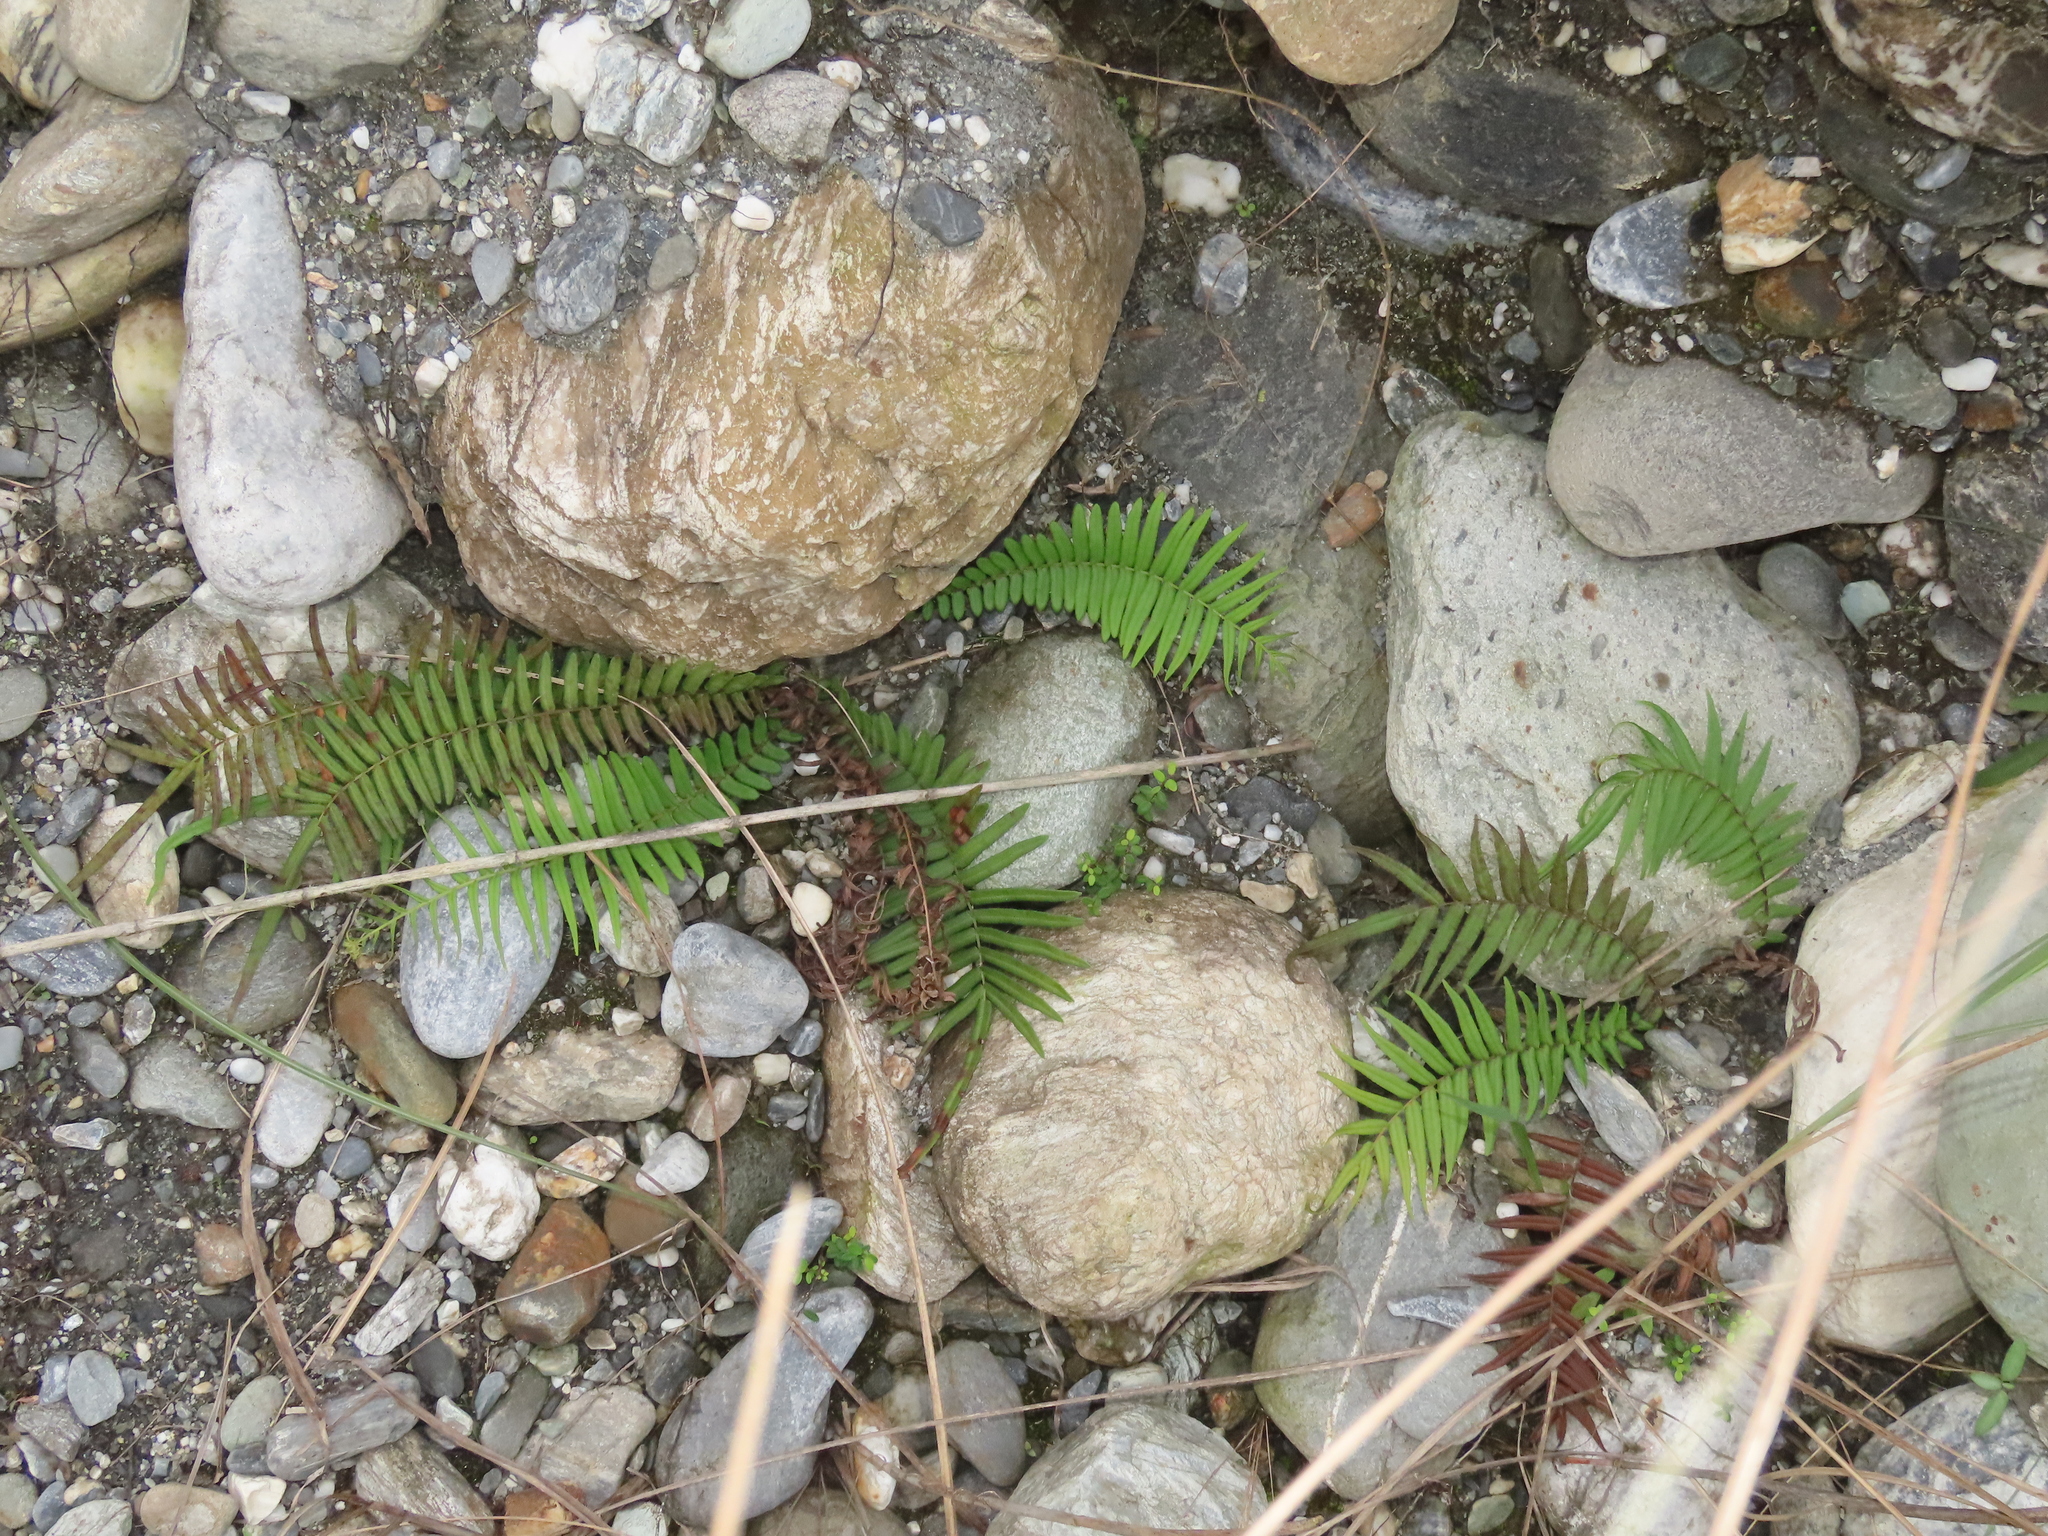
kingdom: Plantae
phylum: Tracheophyta
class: Polypodiopsida
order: Polypodiales
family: Pteridaceae
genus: Pteris
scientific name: Pteris vittata
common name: Ladder brake
